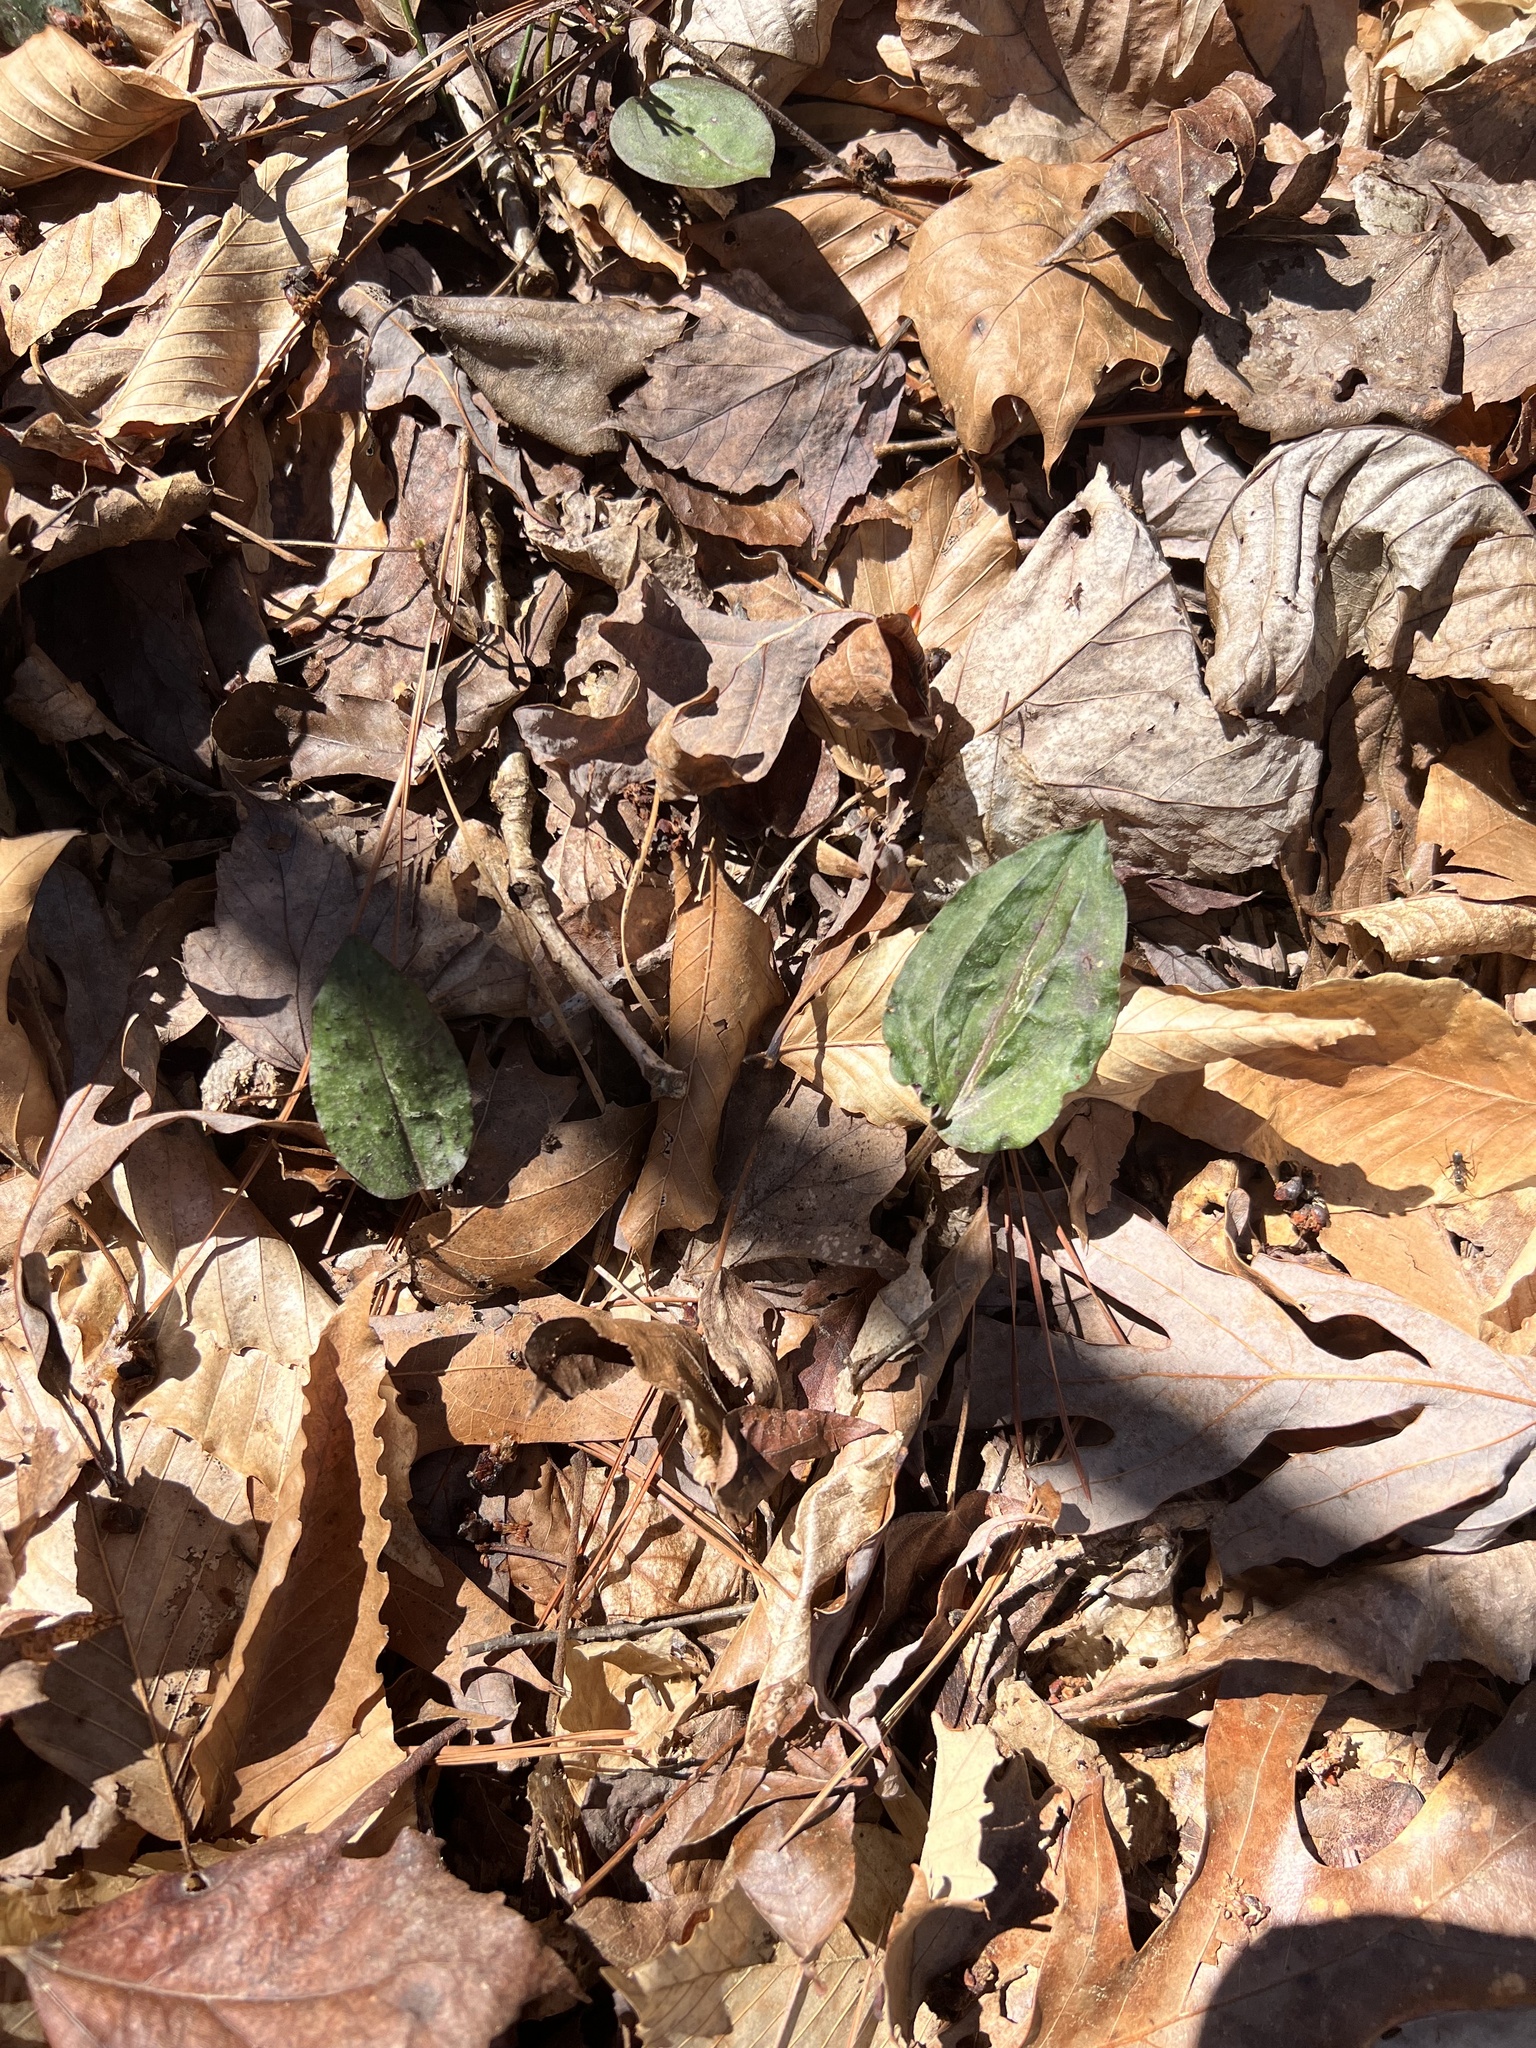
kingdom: Plantae
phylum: Tracheophyta
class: Liliopsida
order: Asparagales
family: Orchidaceae
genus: Tipularia
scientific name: Tipularia discolor
